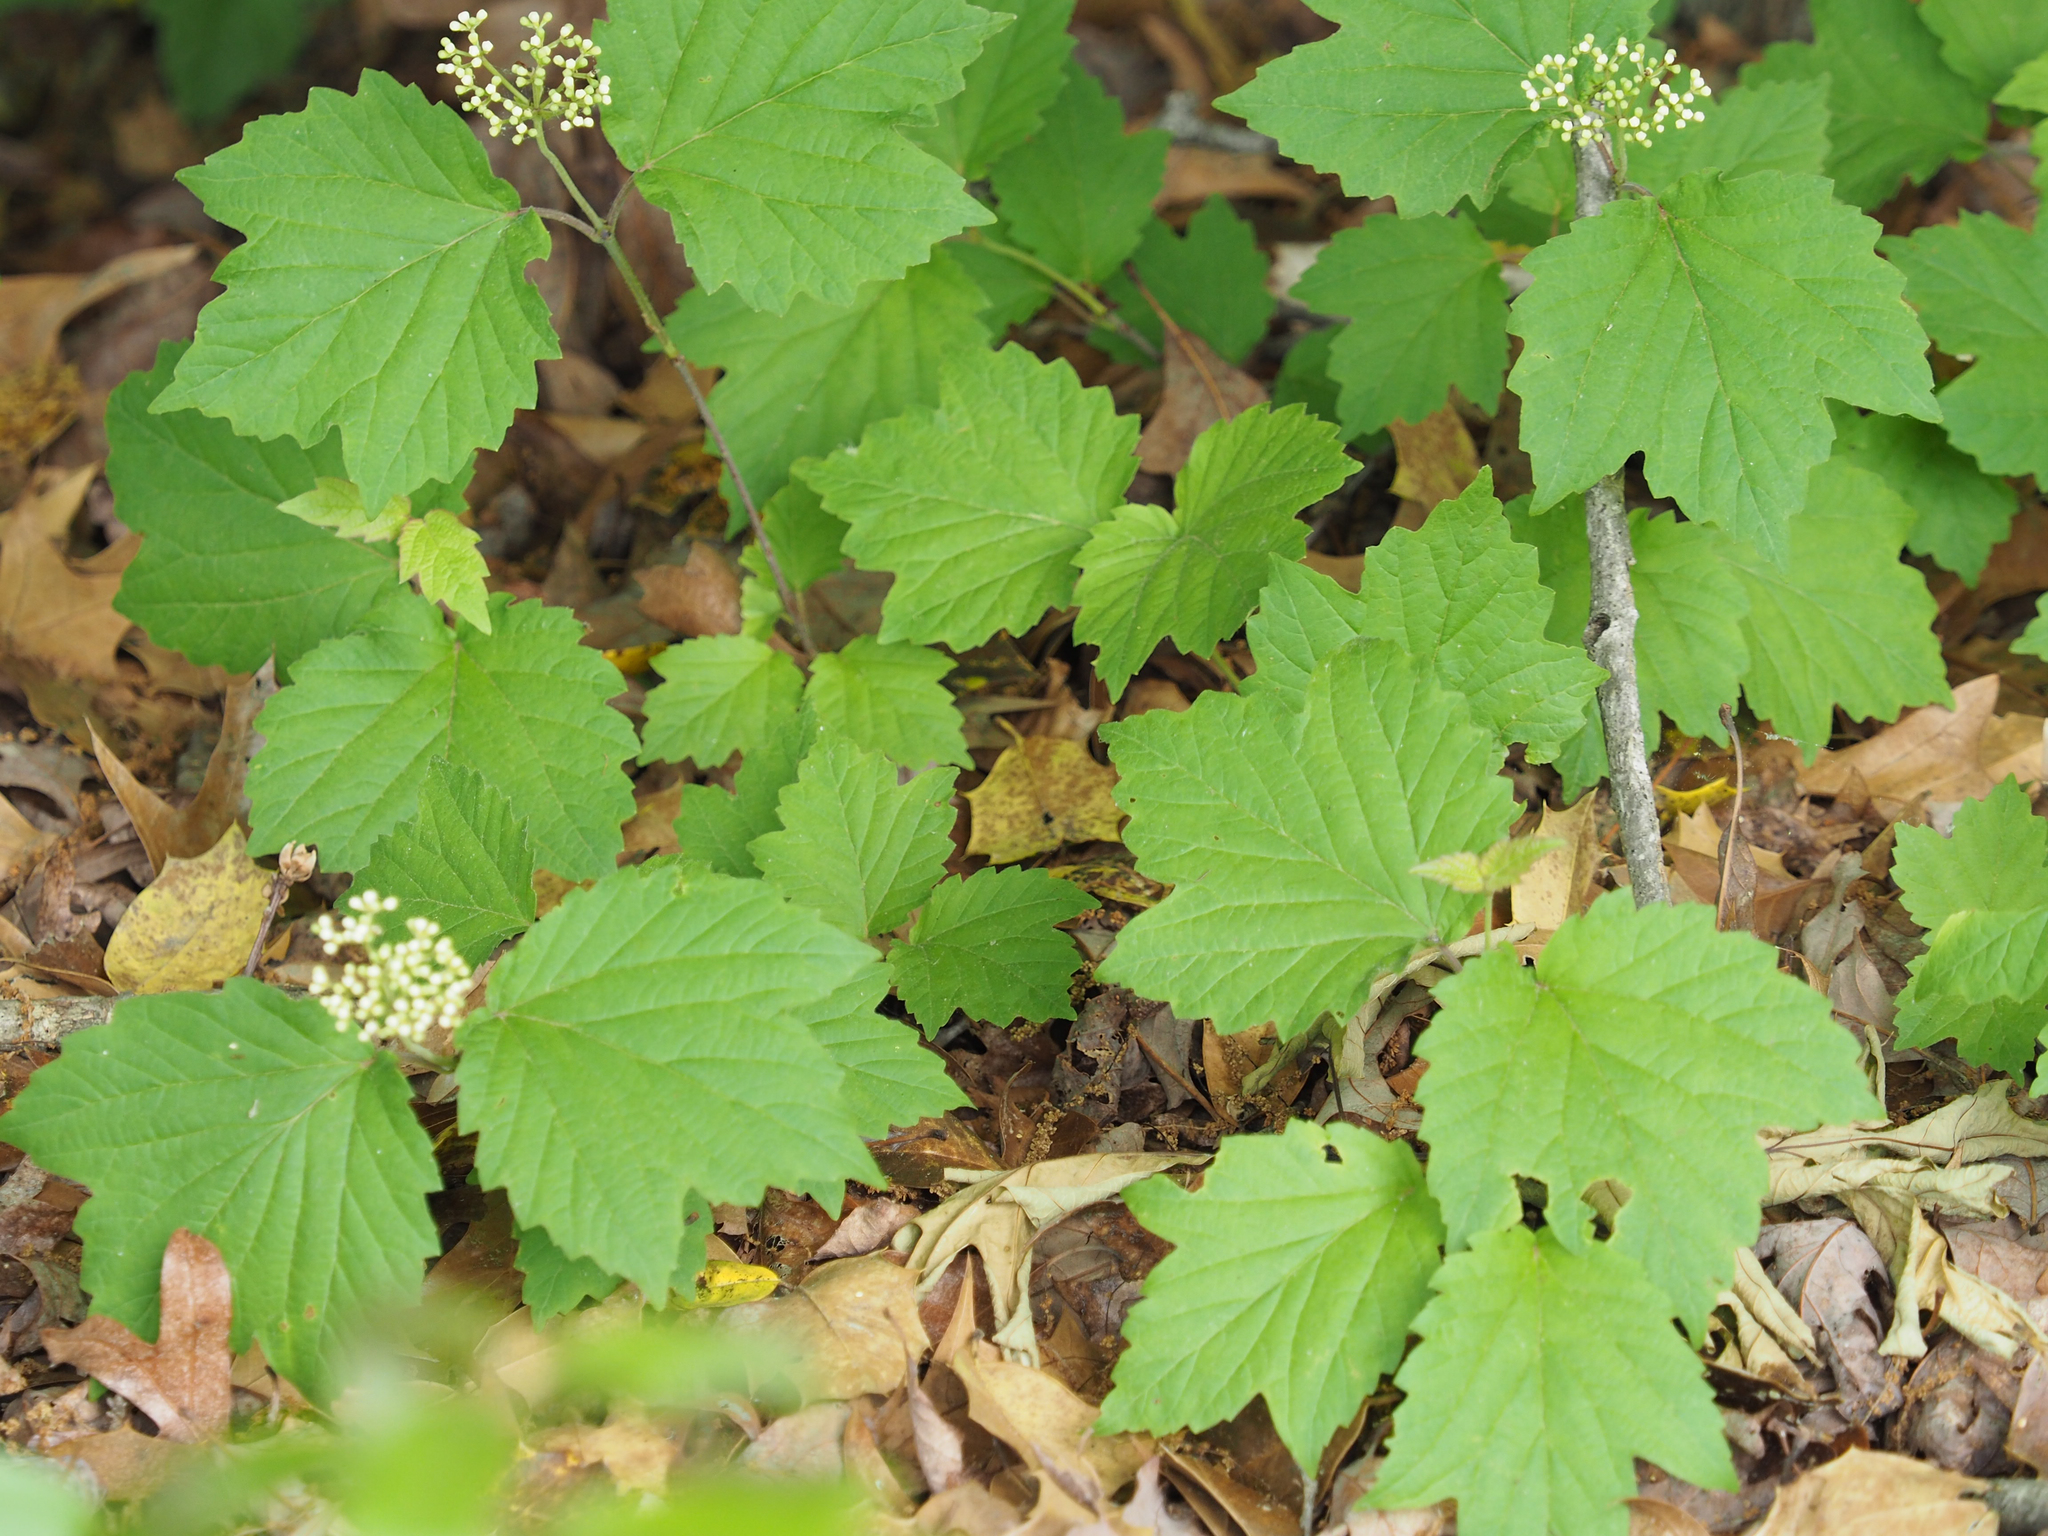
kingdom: Plantae
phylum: Tracheophyta
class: Magnoliopsida
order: Dipsacales
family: Viburnaceae
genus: Viburnum
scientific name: Viburnum acerifolium
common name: Dockmackie
